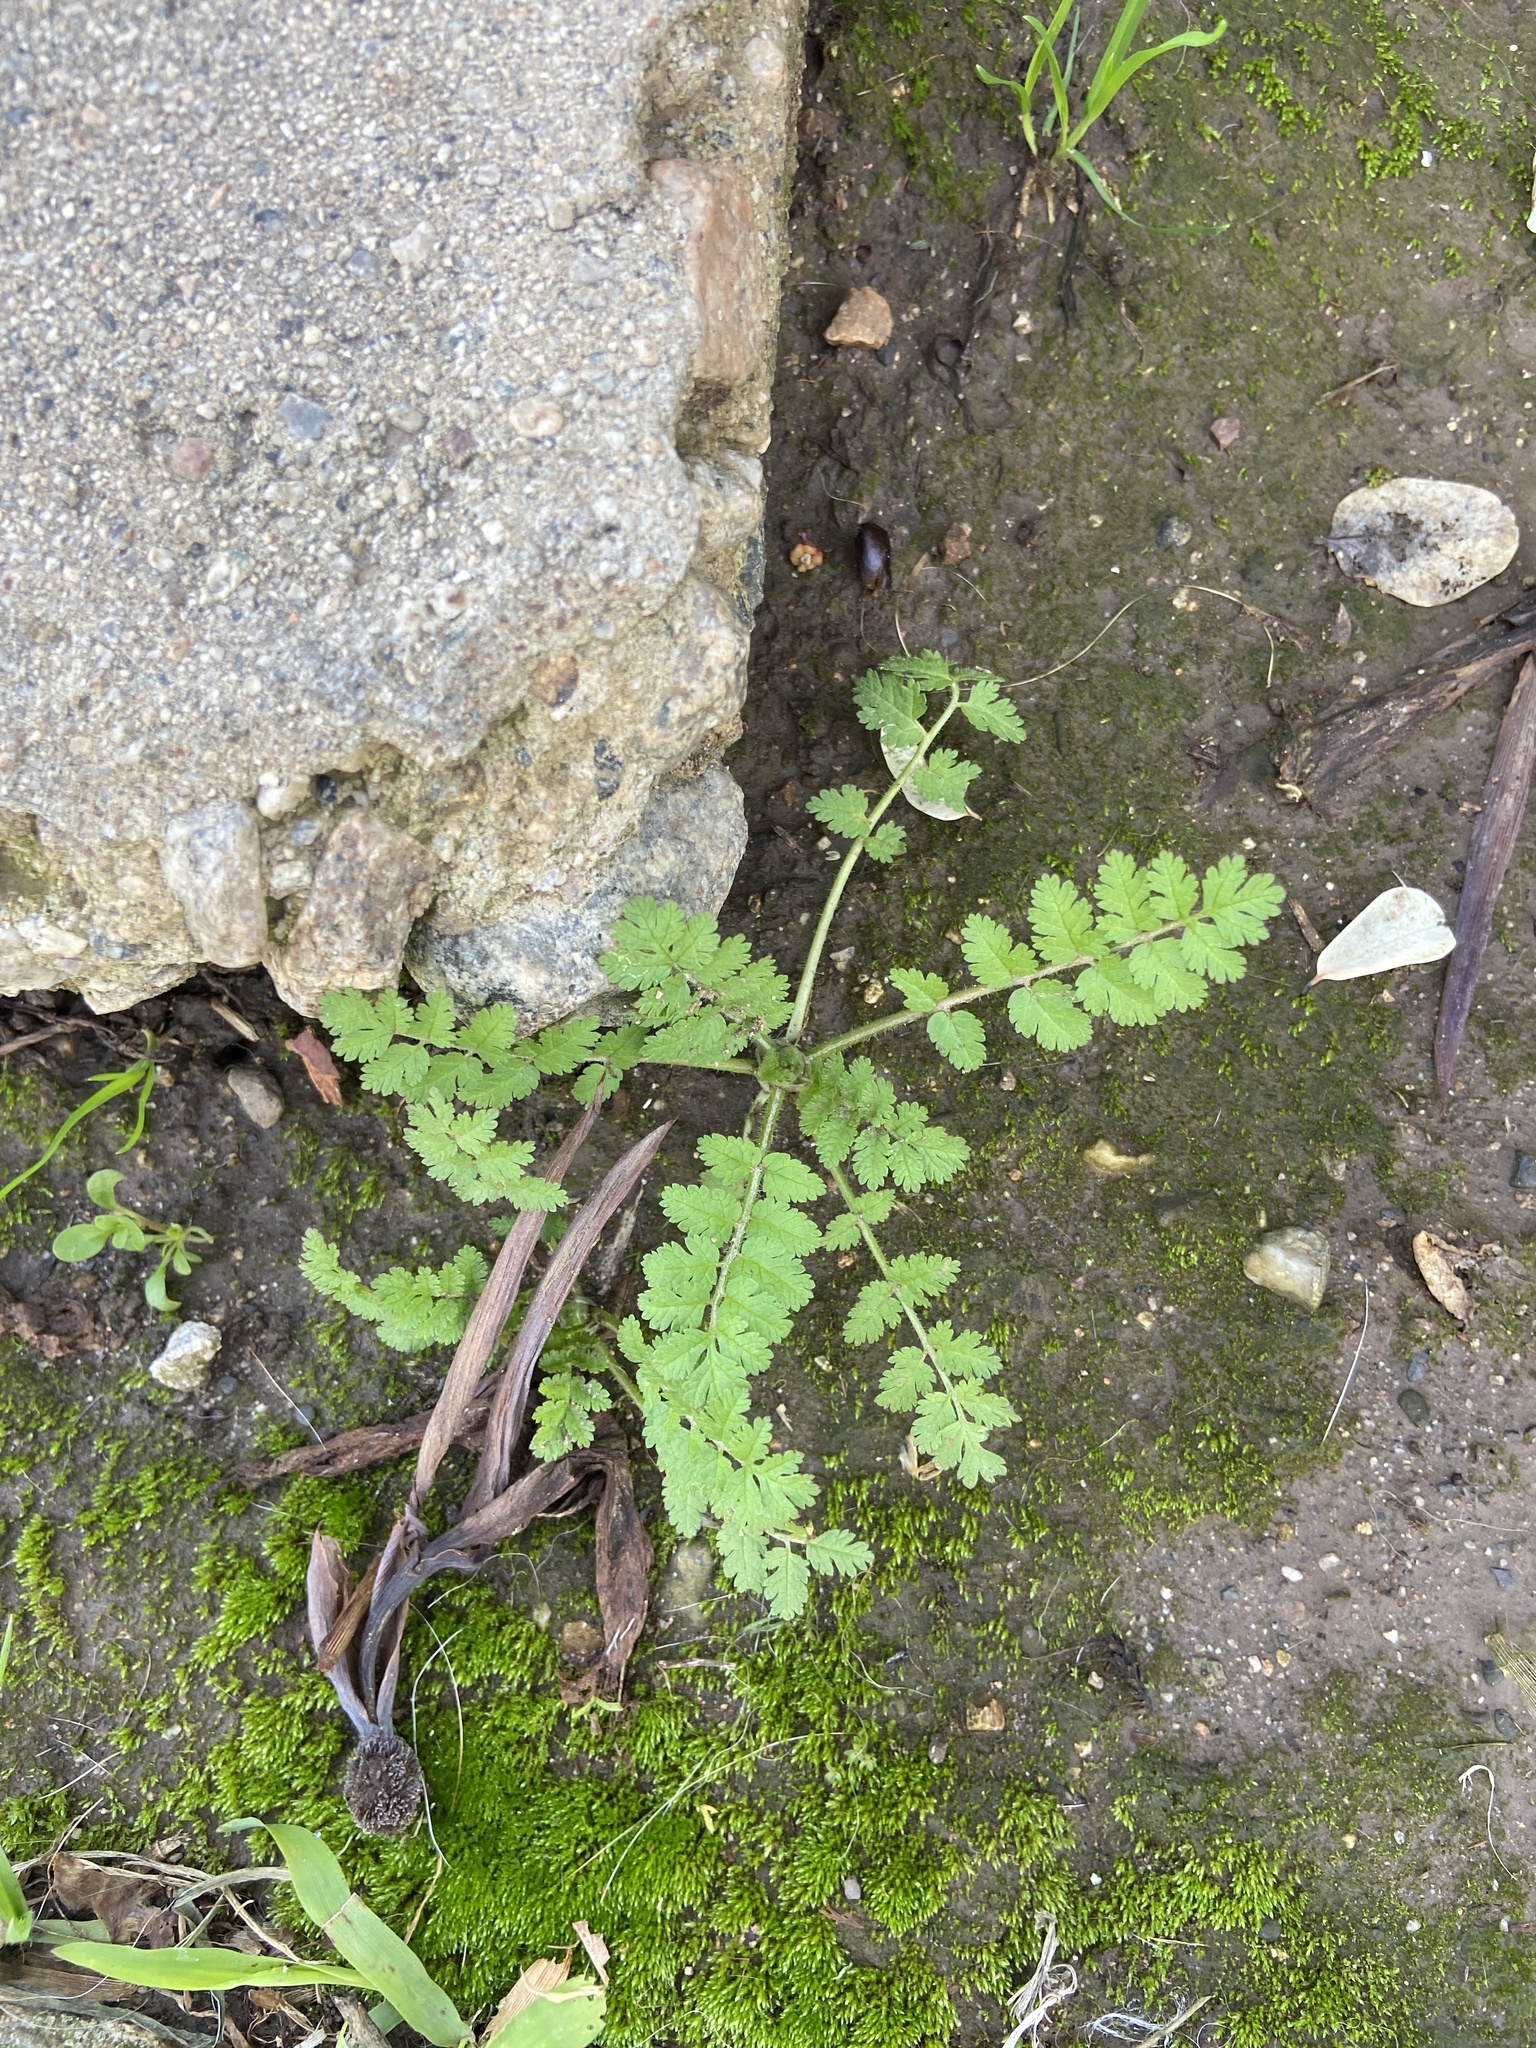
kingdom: Plantae
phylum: Tracheophyta
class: Magnoliopsida
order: Geraniales
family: Geraniaceae
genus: Erodium
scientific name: Erodium moschatum
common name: Musk stork's-bill
